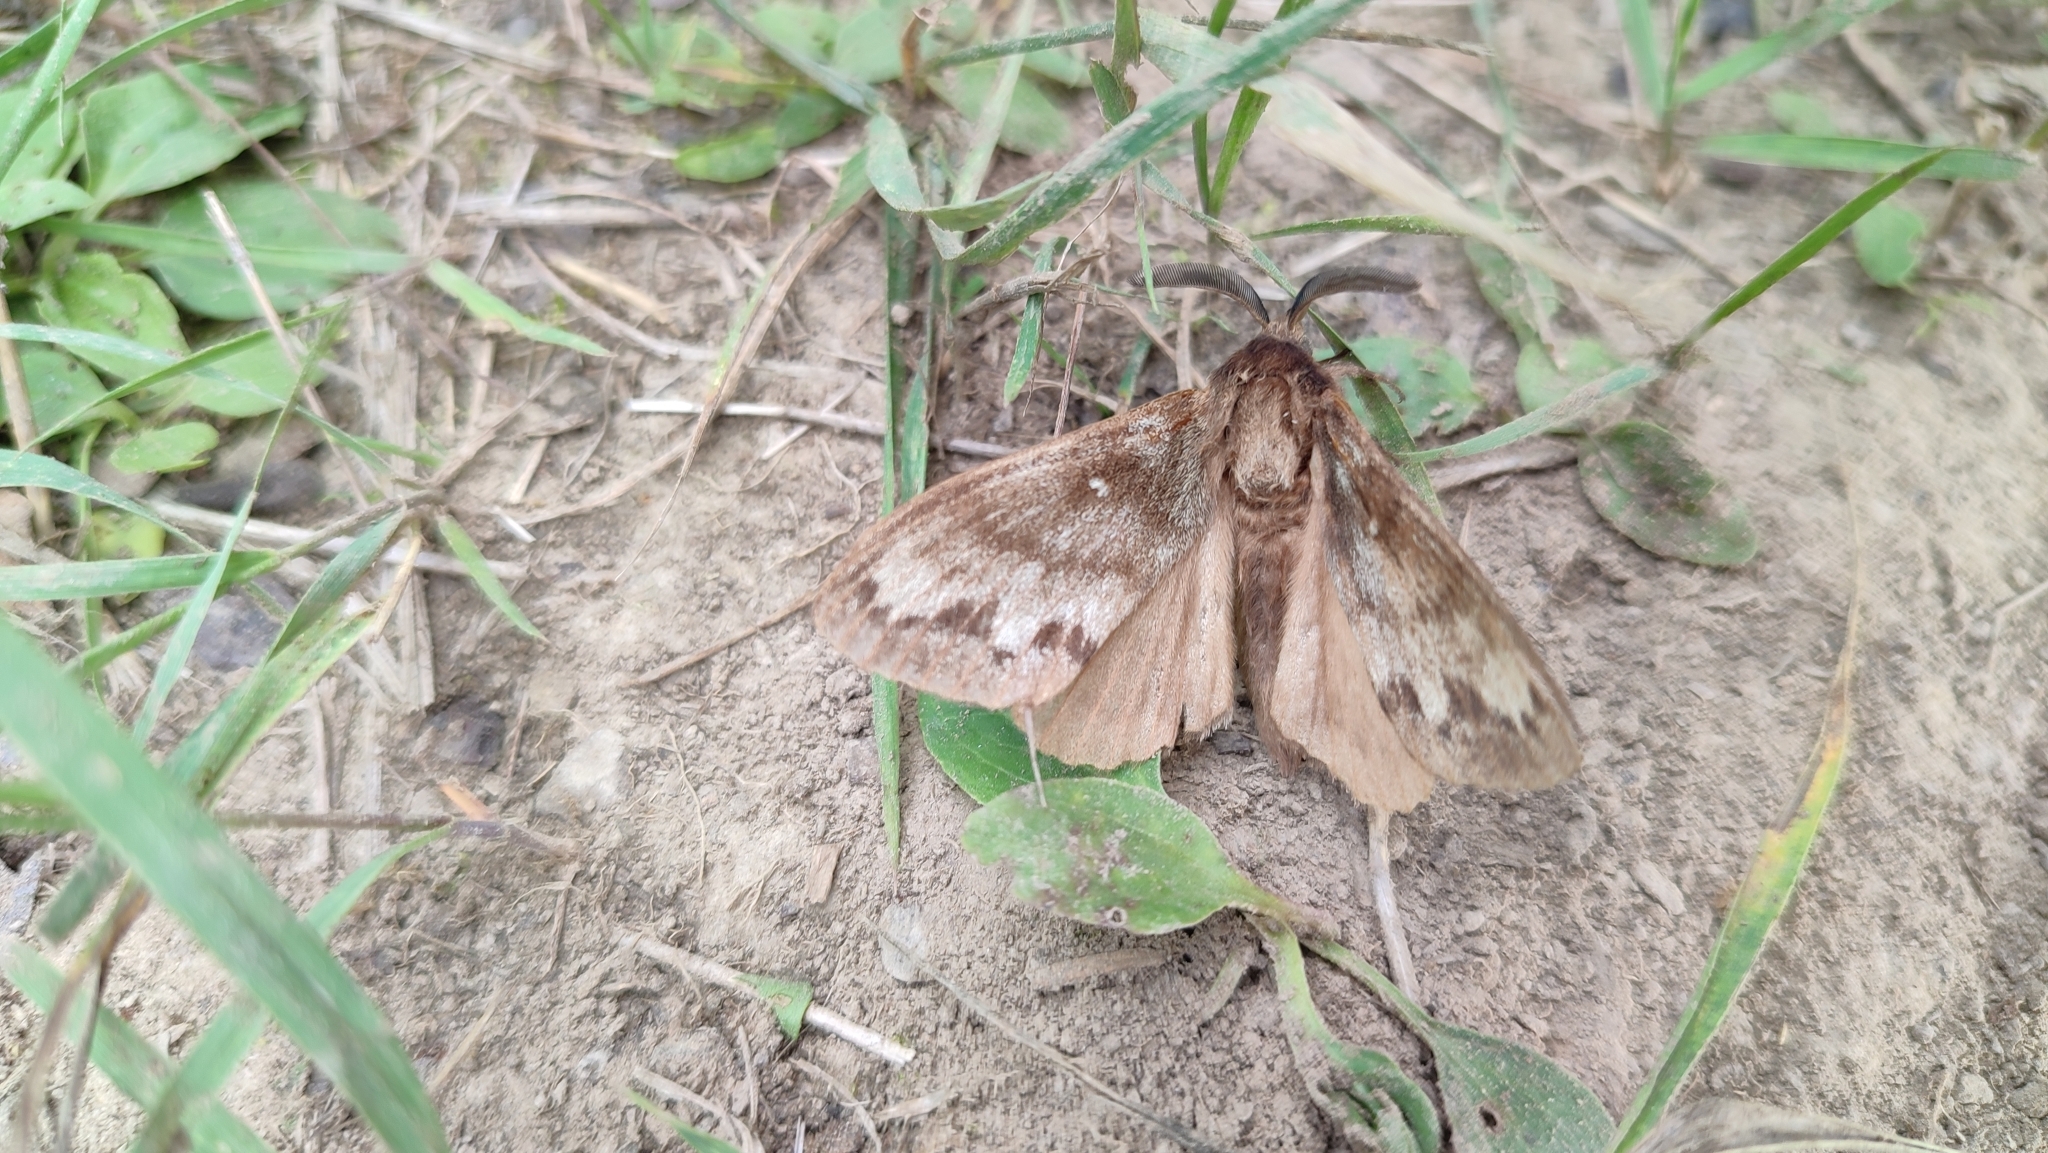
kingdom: Animalia
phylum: Arthropoda
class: Insecta
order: Lepidoptera
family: Lasiocampidae
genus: Dendrolimus
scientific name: Dendrolimus superans
